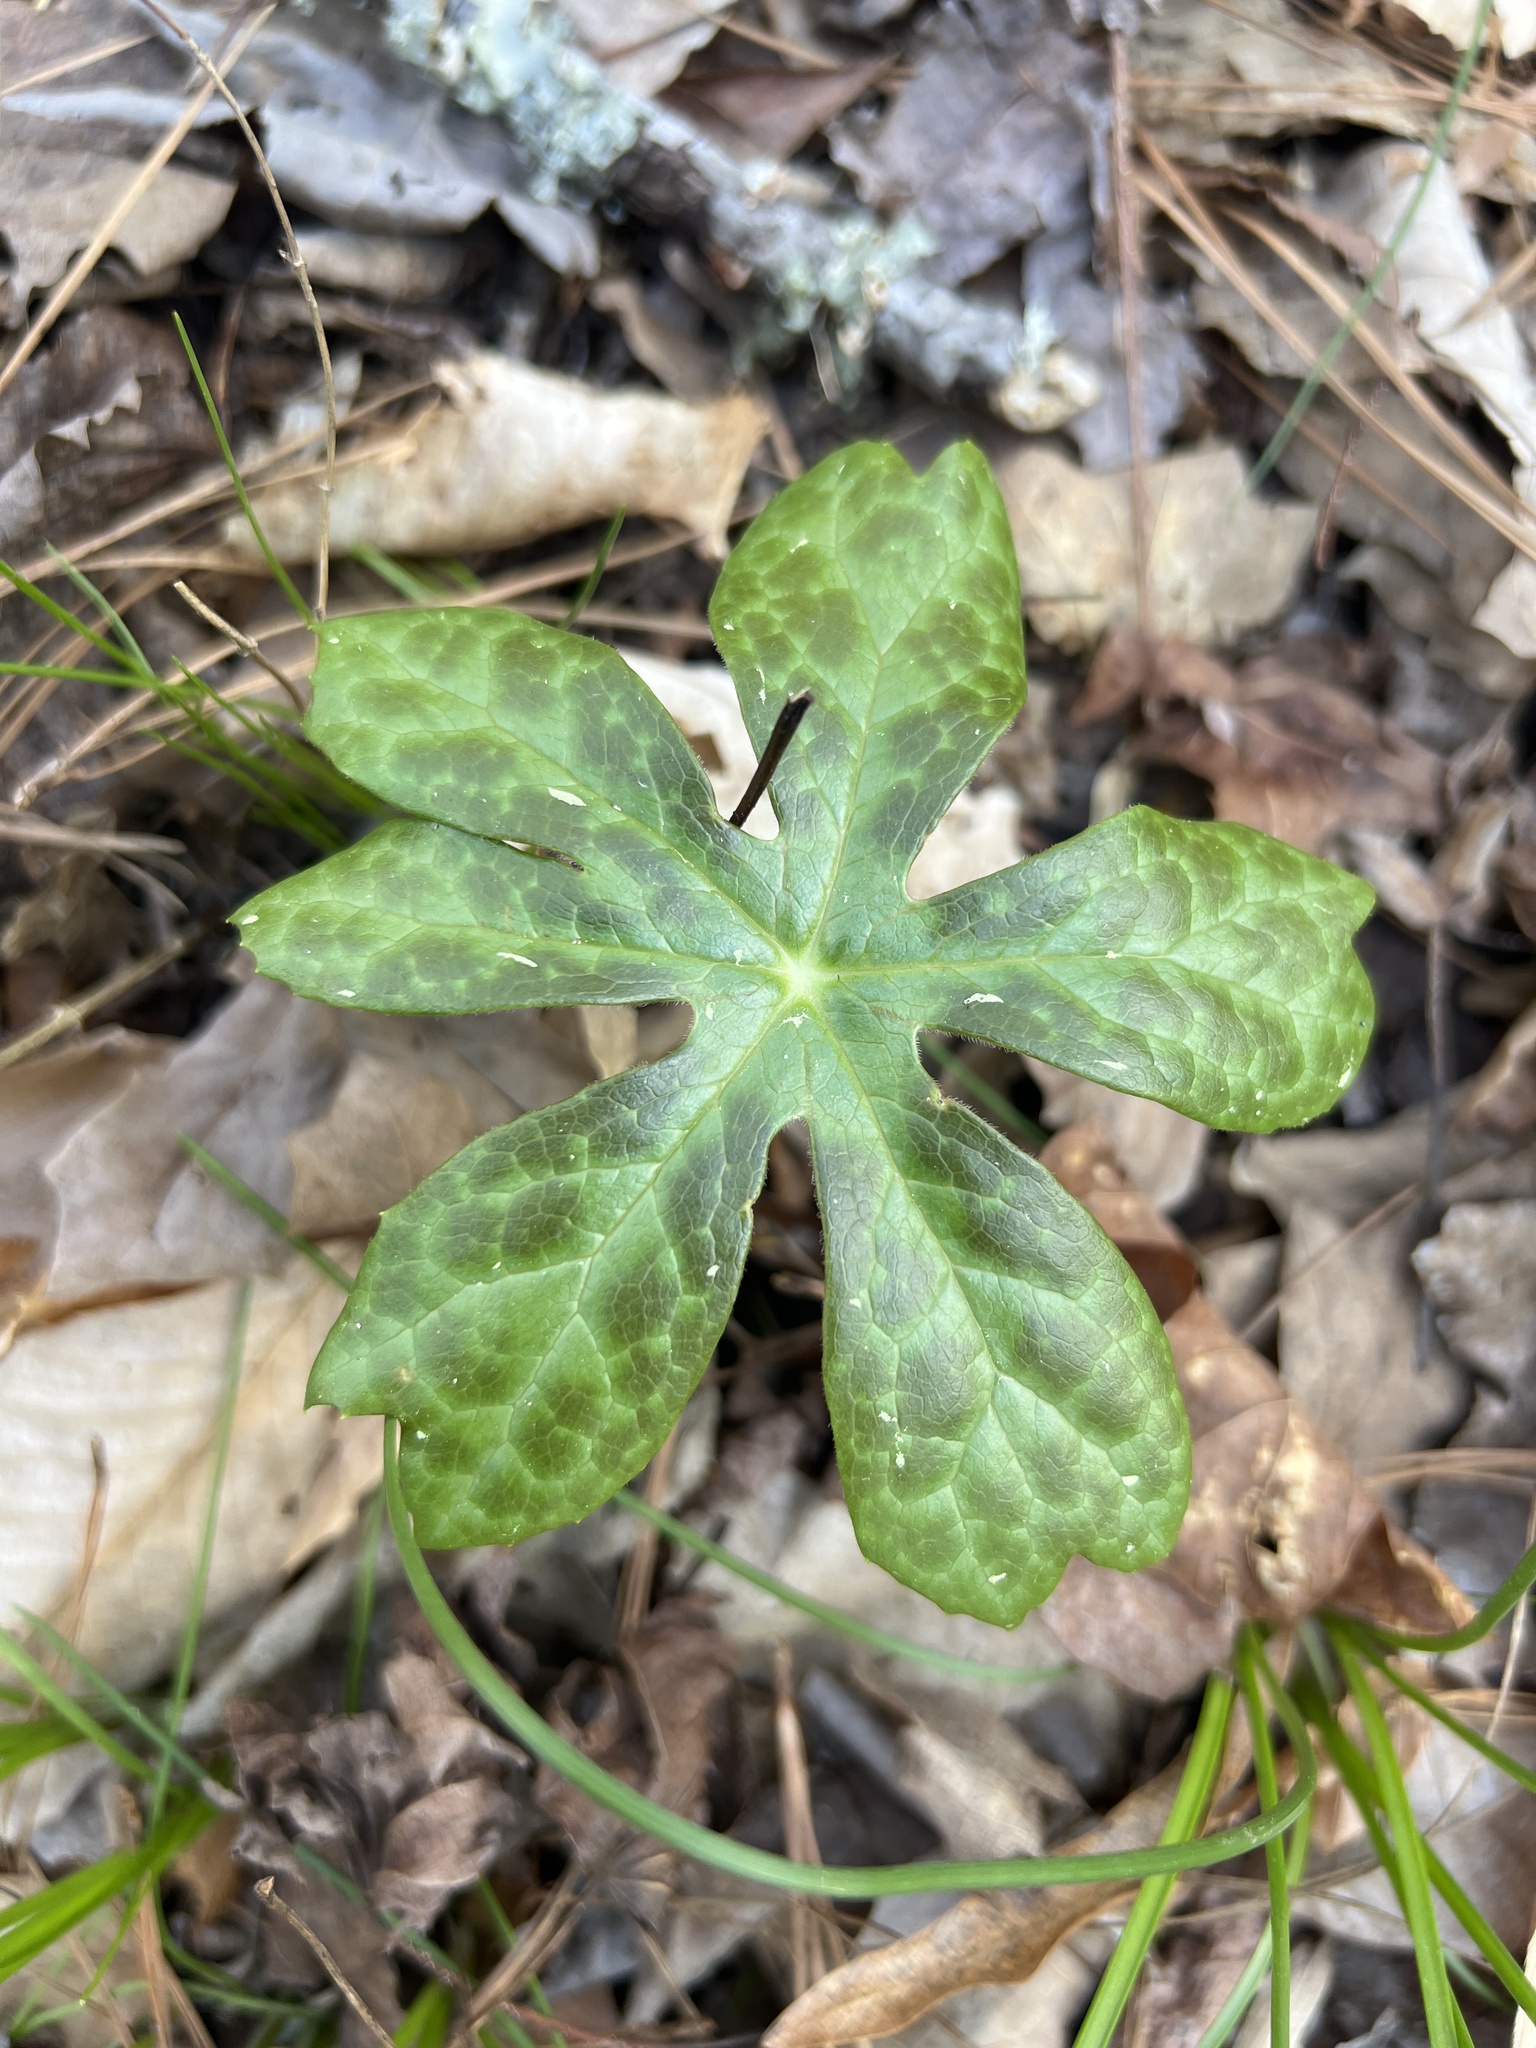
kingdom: Plantae
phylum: Tracheophyta
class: Magnoliopsida
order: Ranunculales
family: Berberidaceae
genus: Podophyllum
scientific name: Podophyllum peltatum
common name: Wild mandrake
